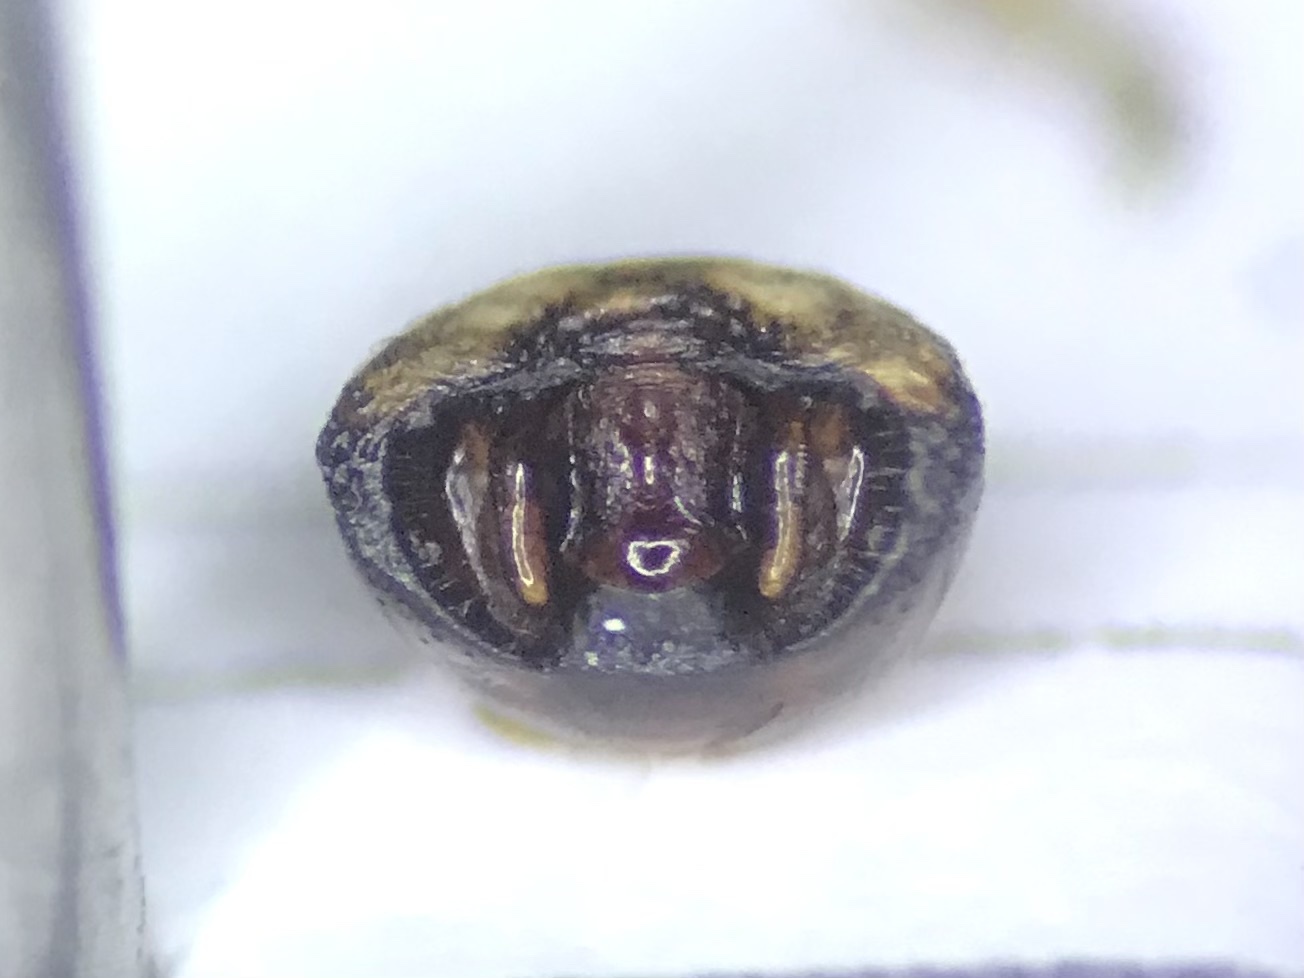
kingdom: Animalia
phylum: Arthropoda
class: Insecta
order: Hemiptera
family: Pentatomidae
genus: Bolbocoris
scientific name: Bolbocoris rufus
